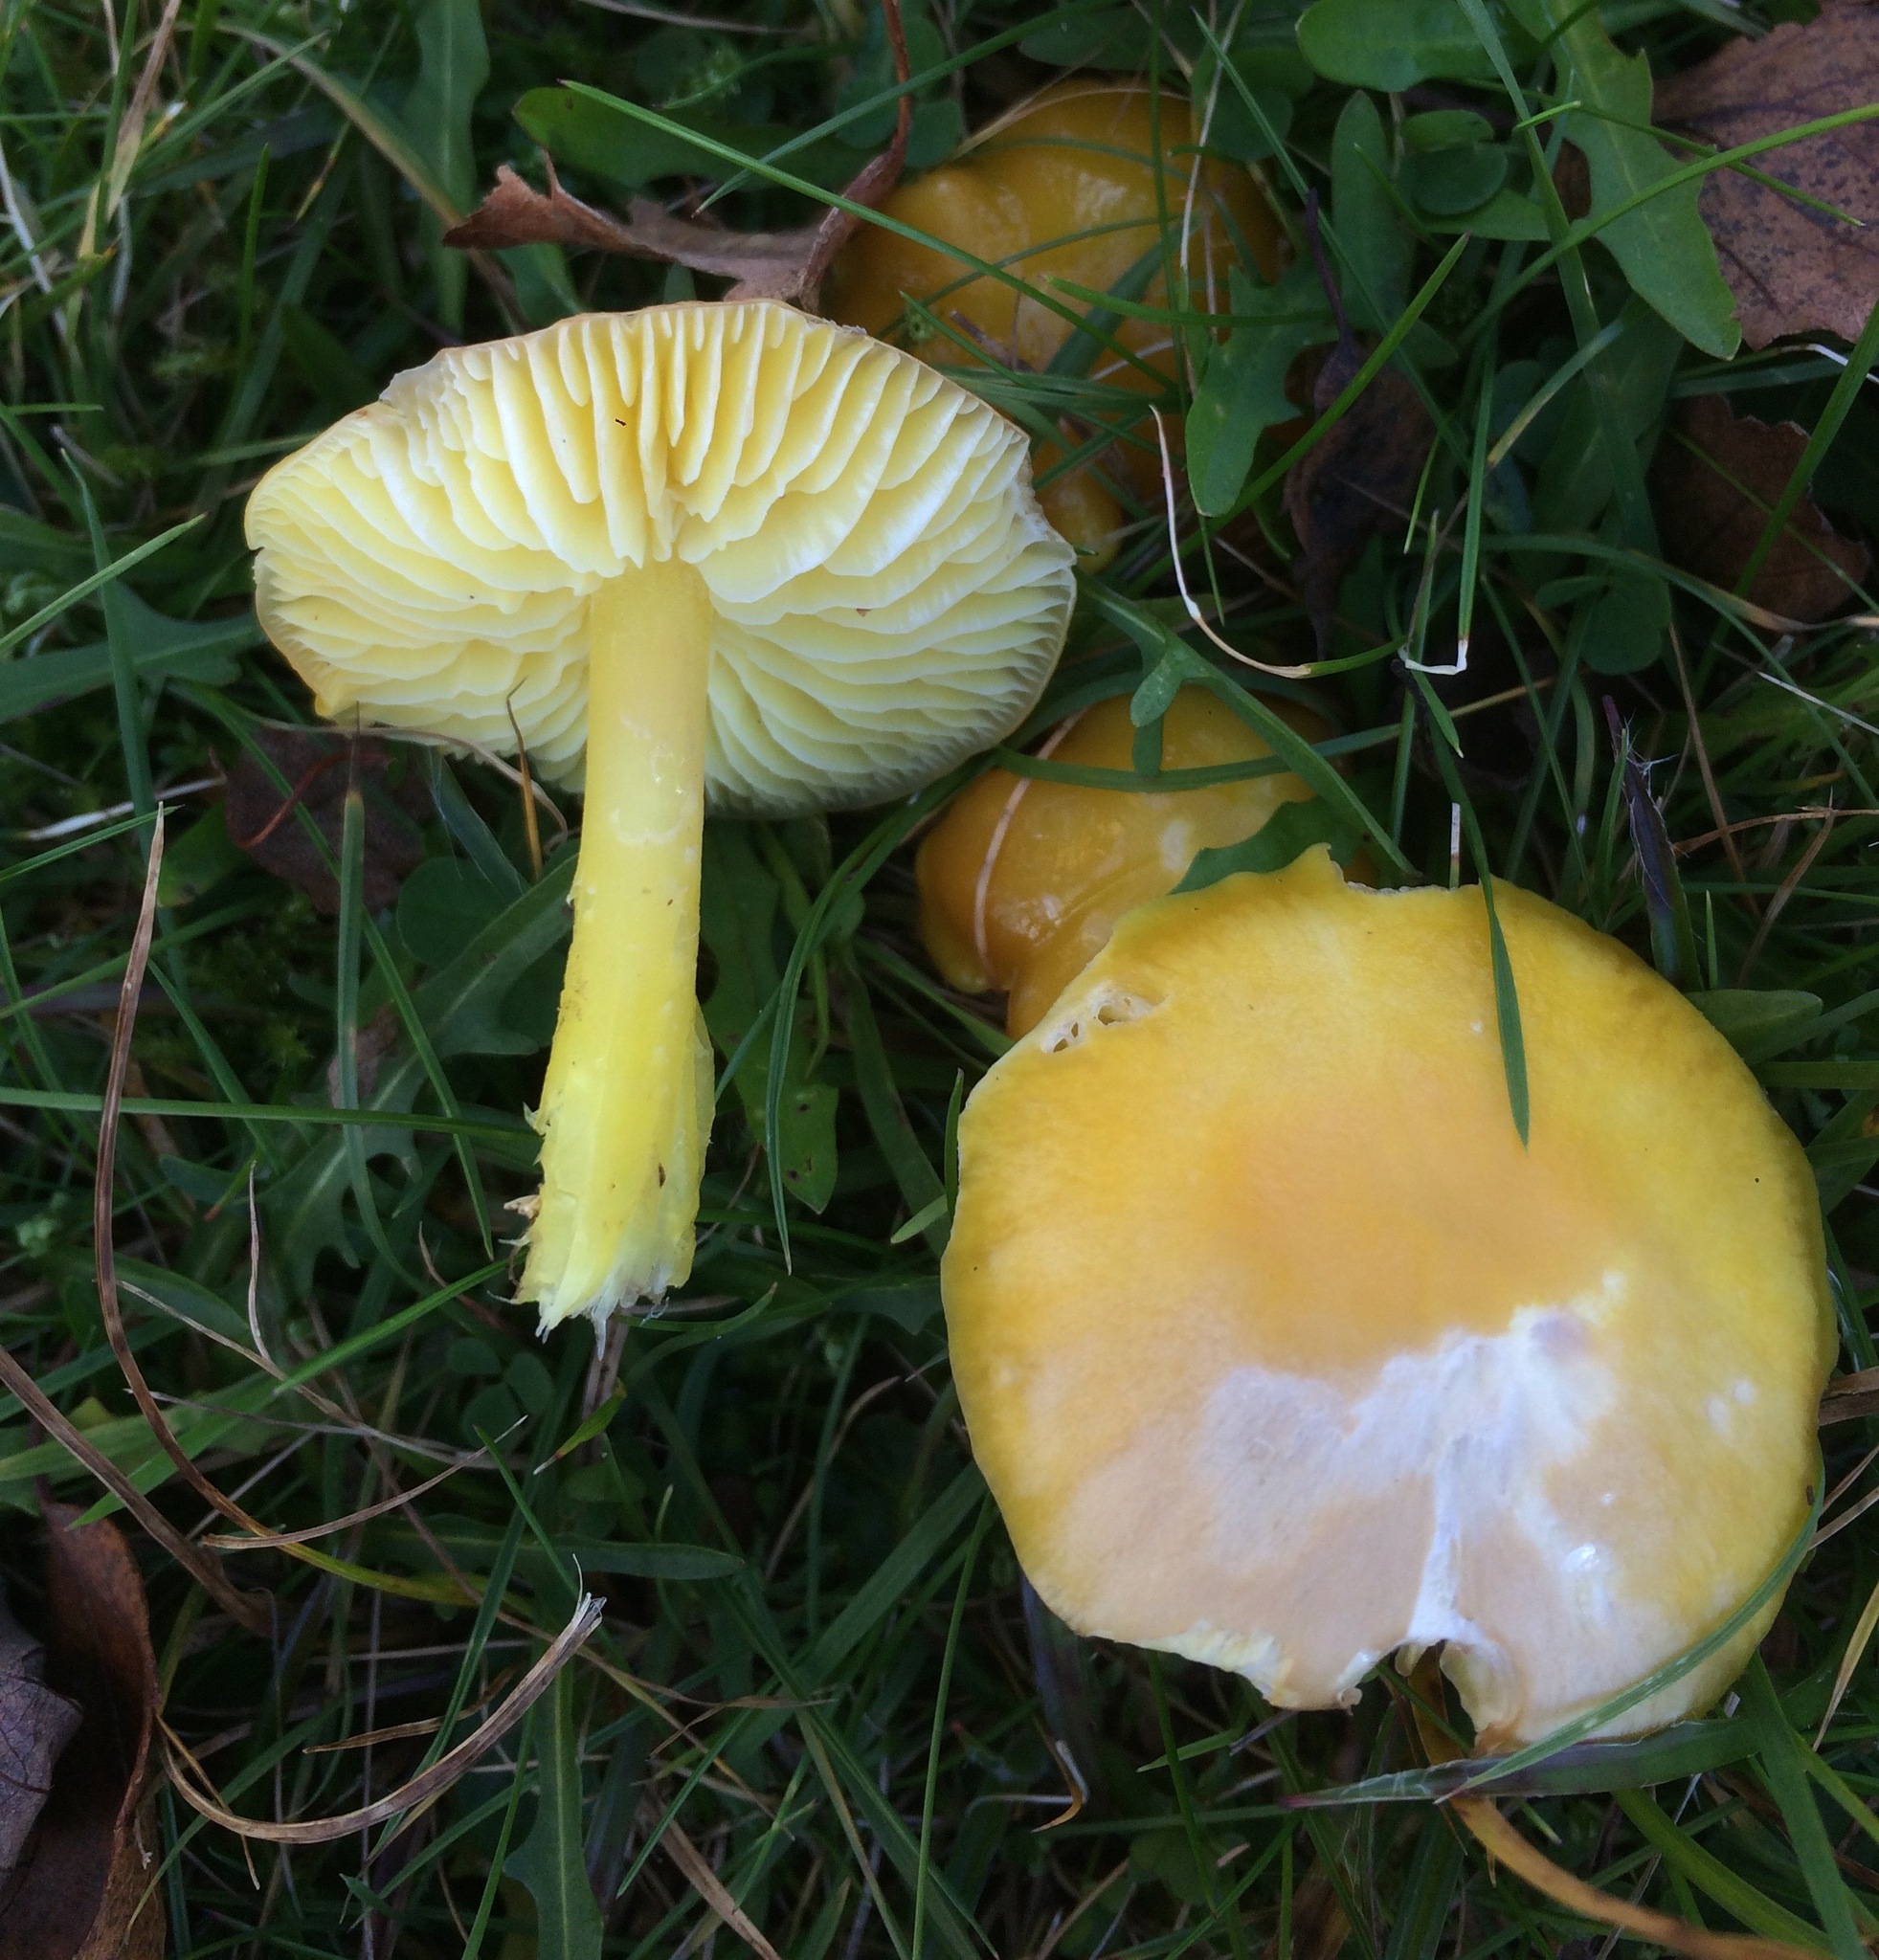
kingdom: Fungi
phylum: Basidiomycota
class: Agaricomycetes
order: Agaricales
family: Hygrophoraceae
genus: Hygrocybe
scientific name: Hygrocybe chlorophana
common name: Golden waxcap
